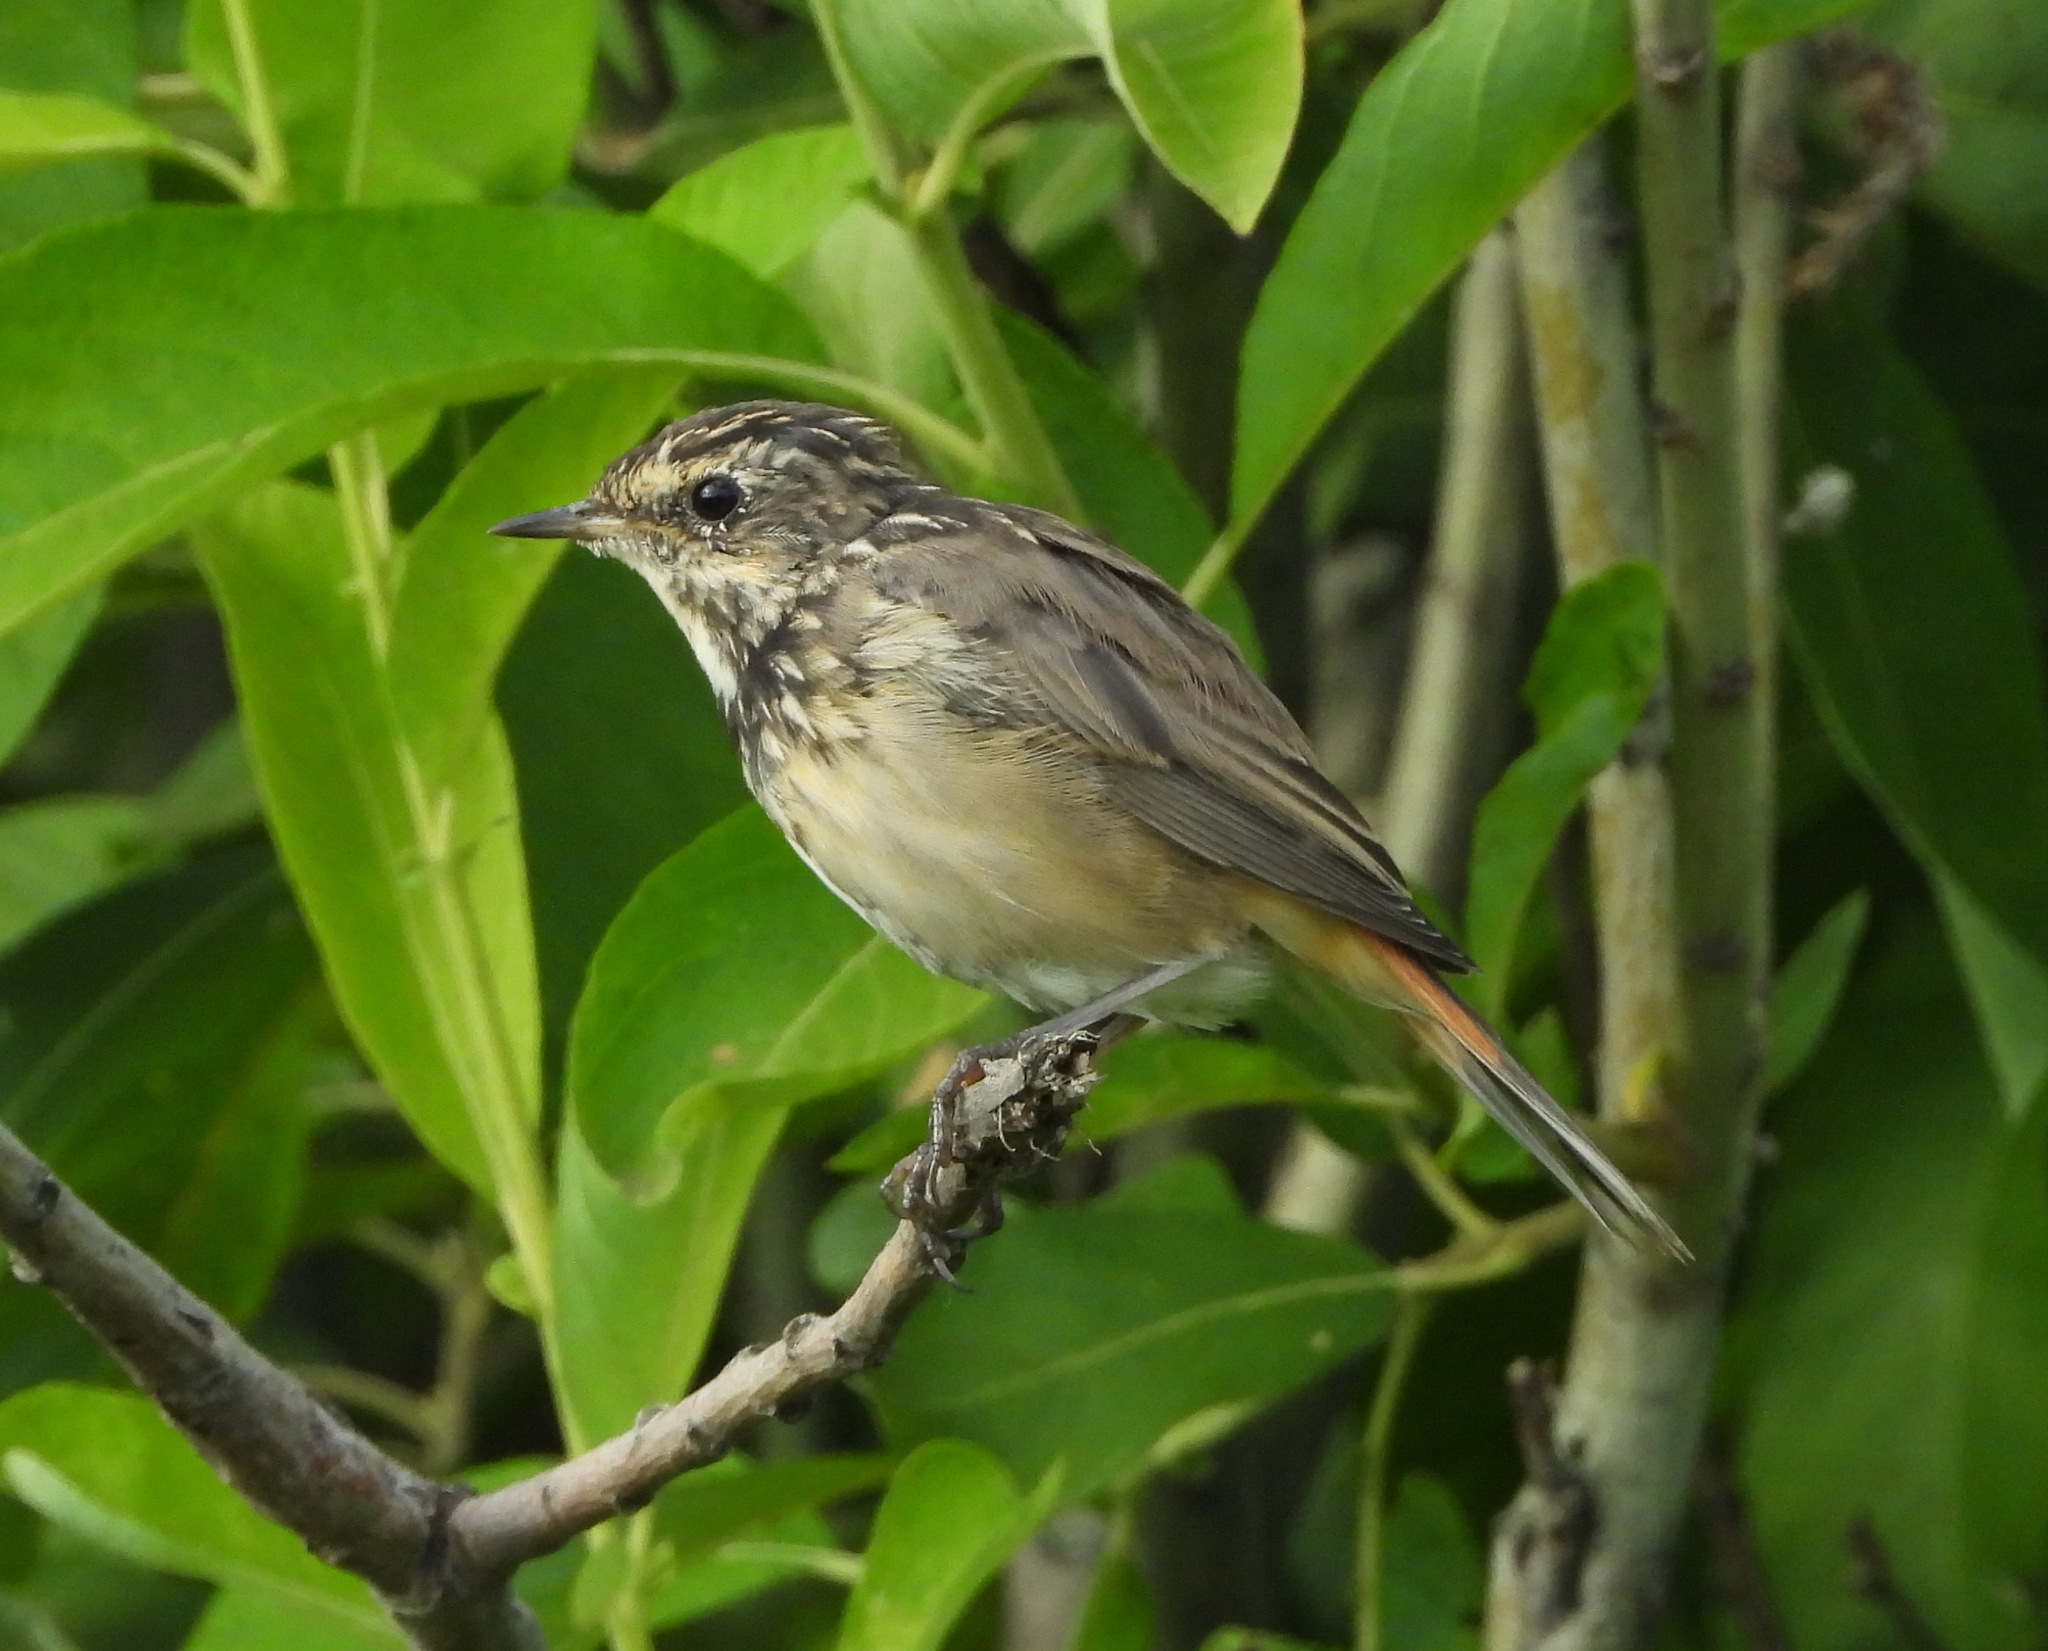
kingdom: Animalia
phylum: Chordata
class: Aves
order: Passeriformes
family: Muscicapidae
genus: Luscinia
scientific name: Luscinia svecica
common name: Bluethroat
